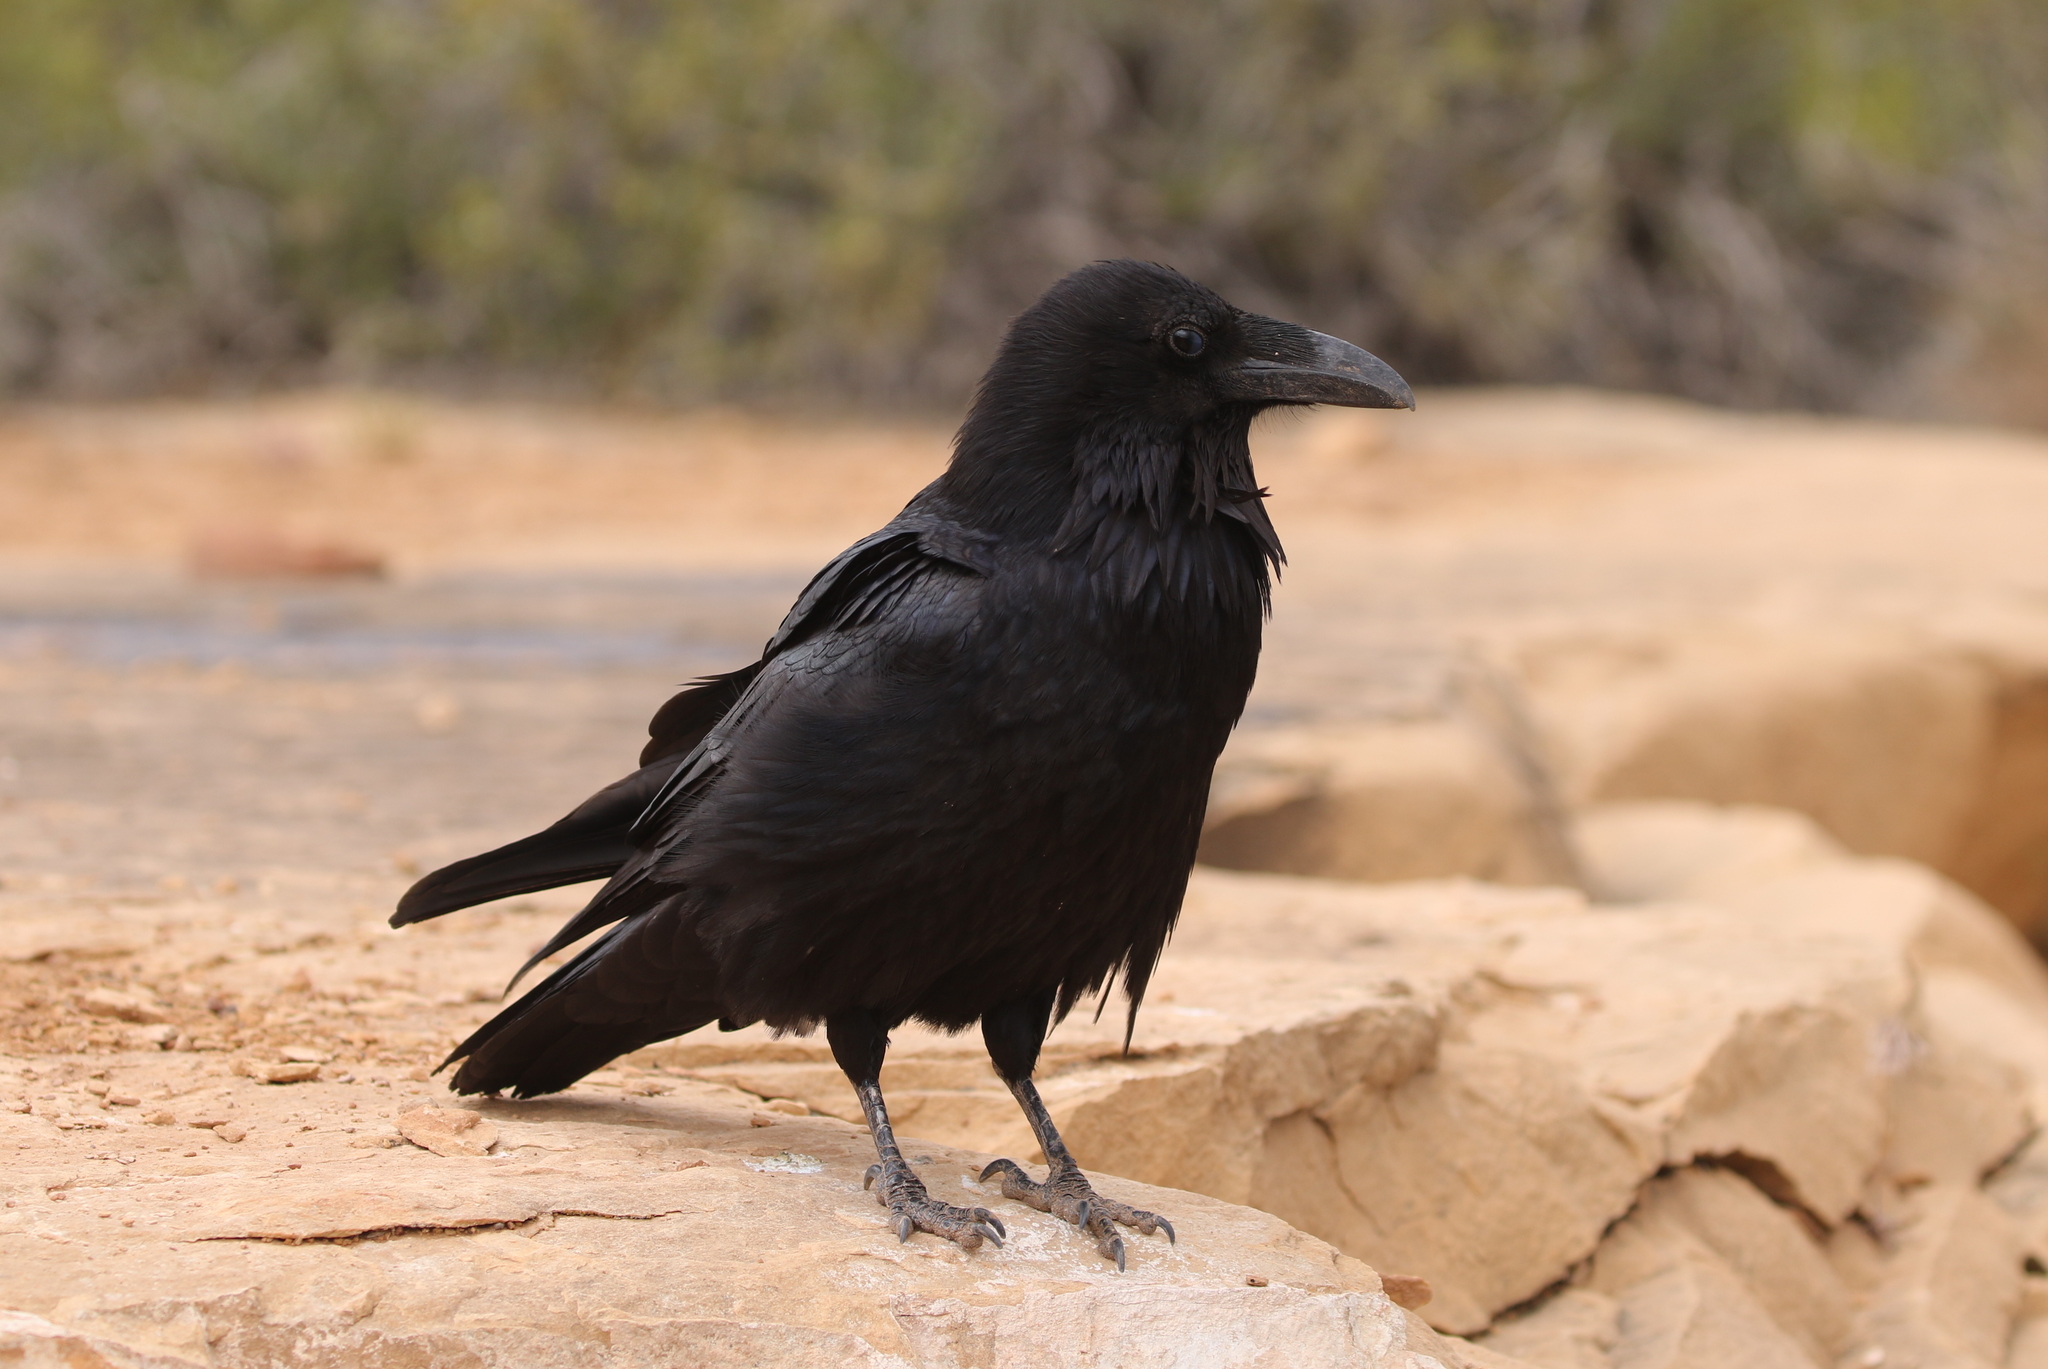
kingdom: Animalia
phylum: Chordata
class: Aves
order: Passeriformes
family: Corvidae
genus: Corvus
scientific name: Corvus corax
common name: Common raven
